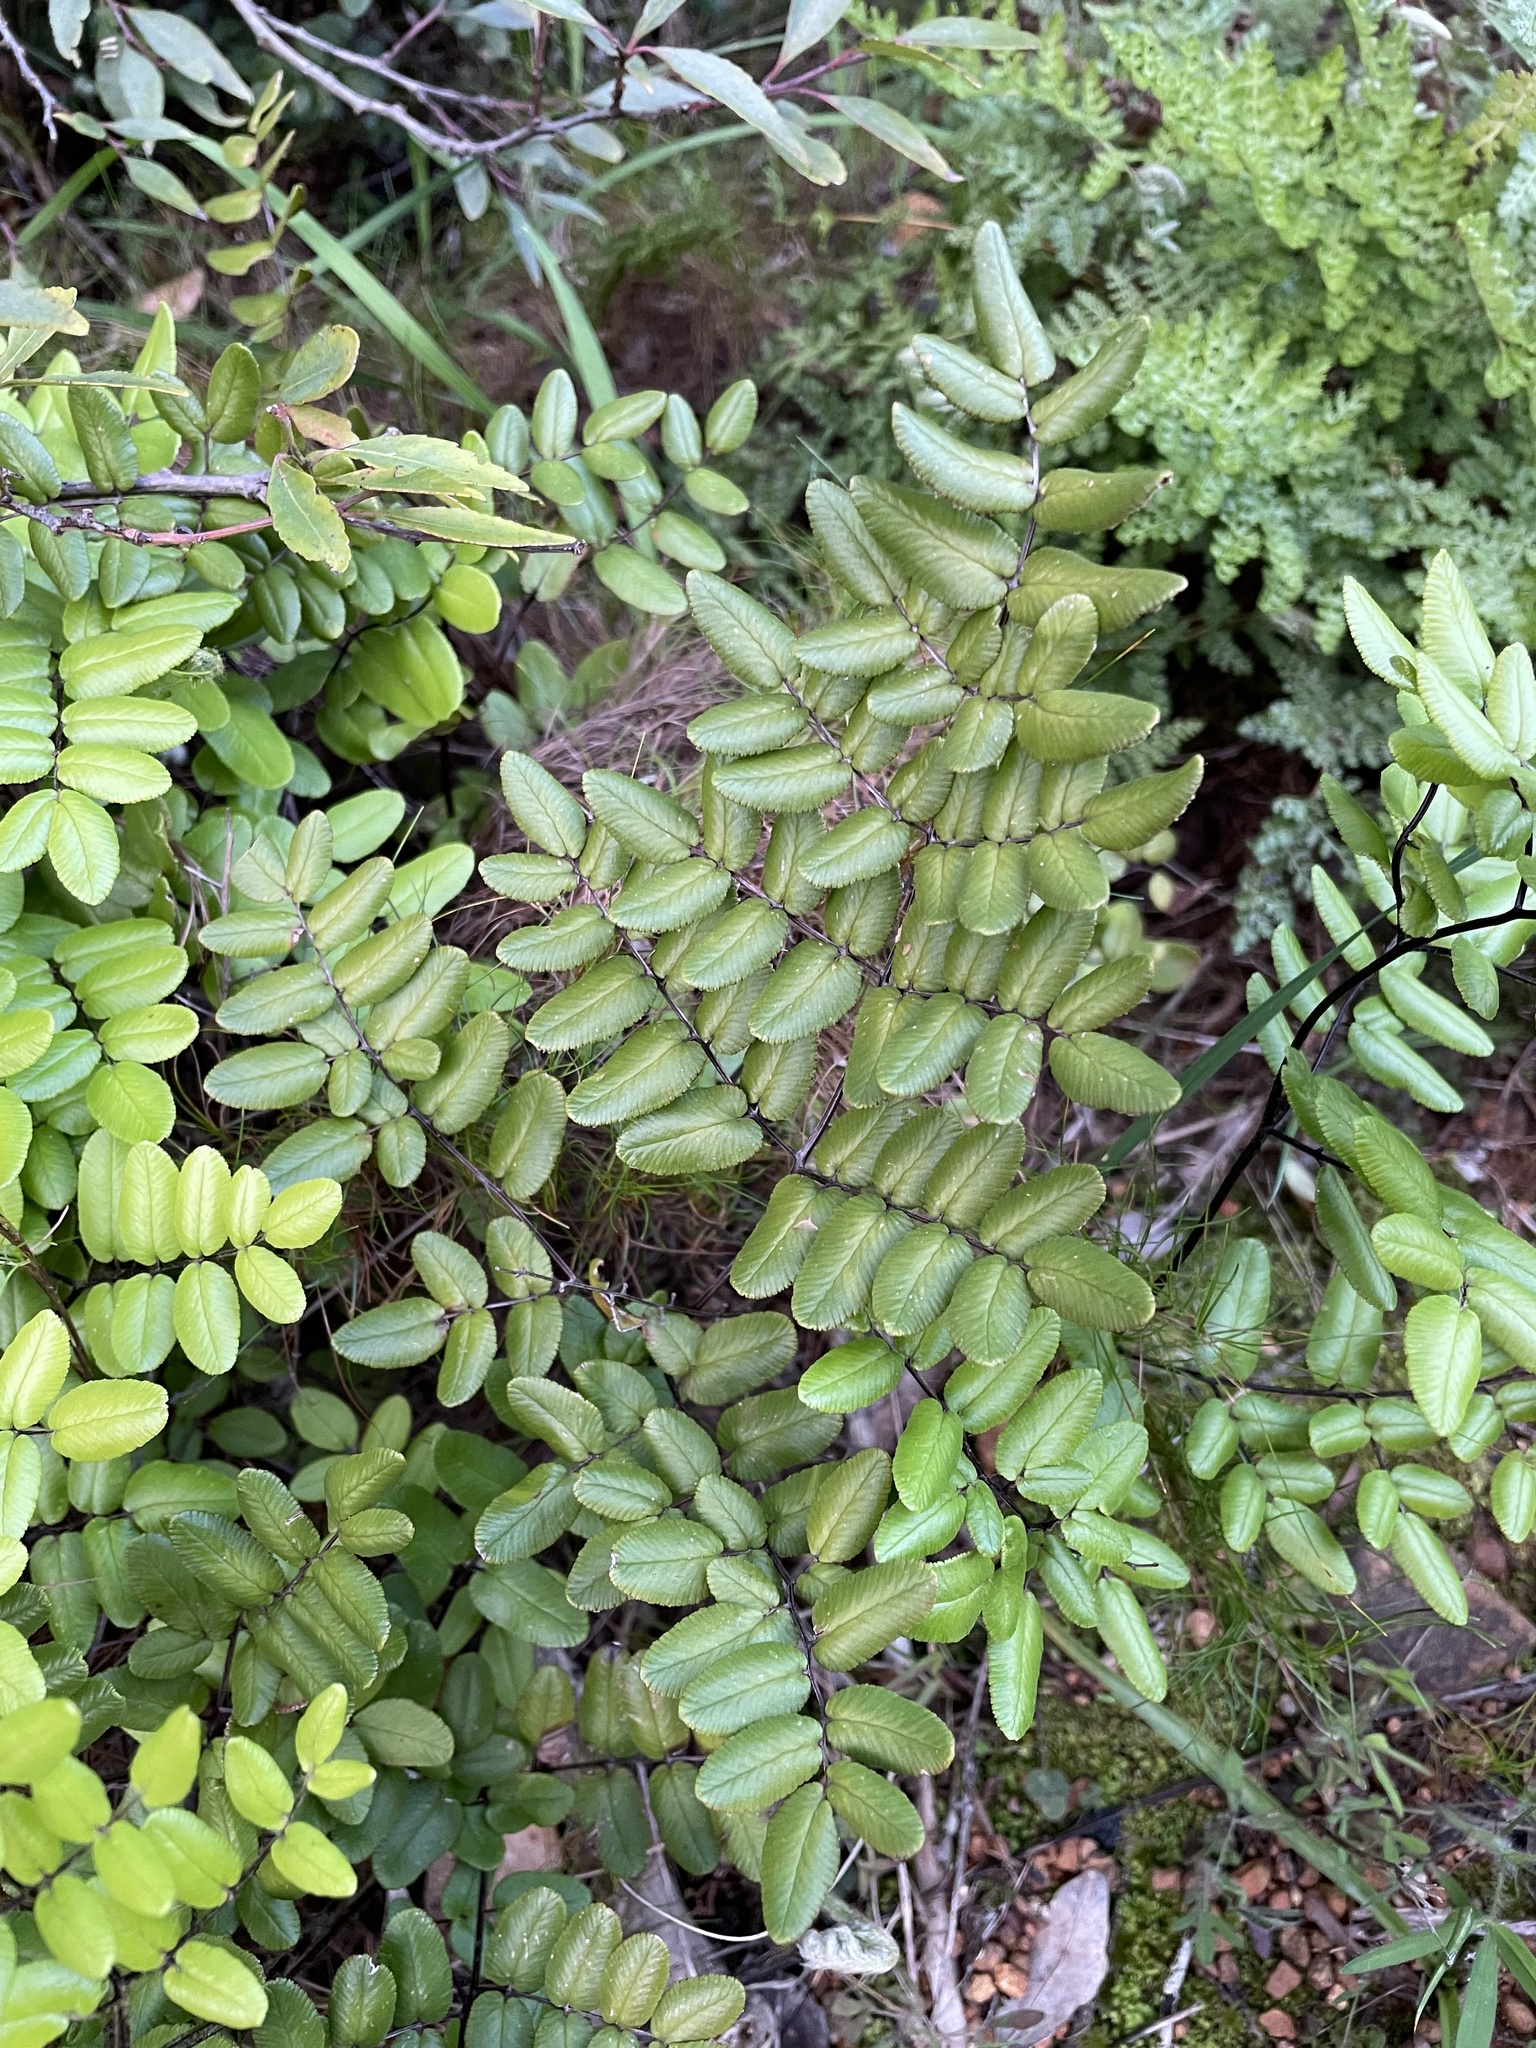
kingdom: Plantae
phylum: Tracheophyta
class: Polypodiopsida
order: Polypodiales
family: Pteridaceae
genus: Pellaea
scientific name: Pellaea pteroides
